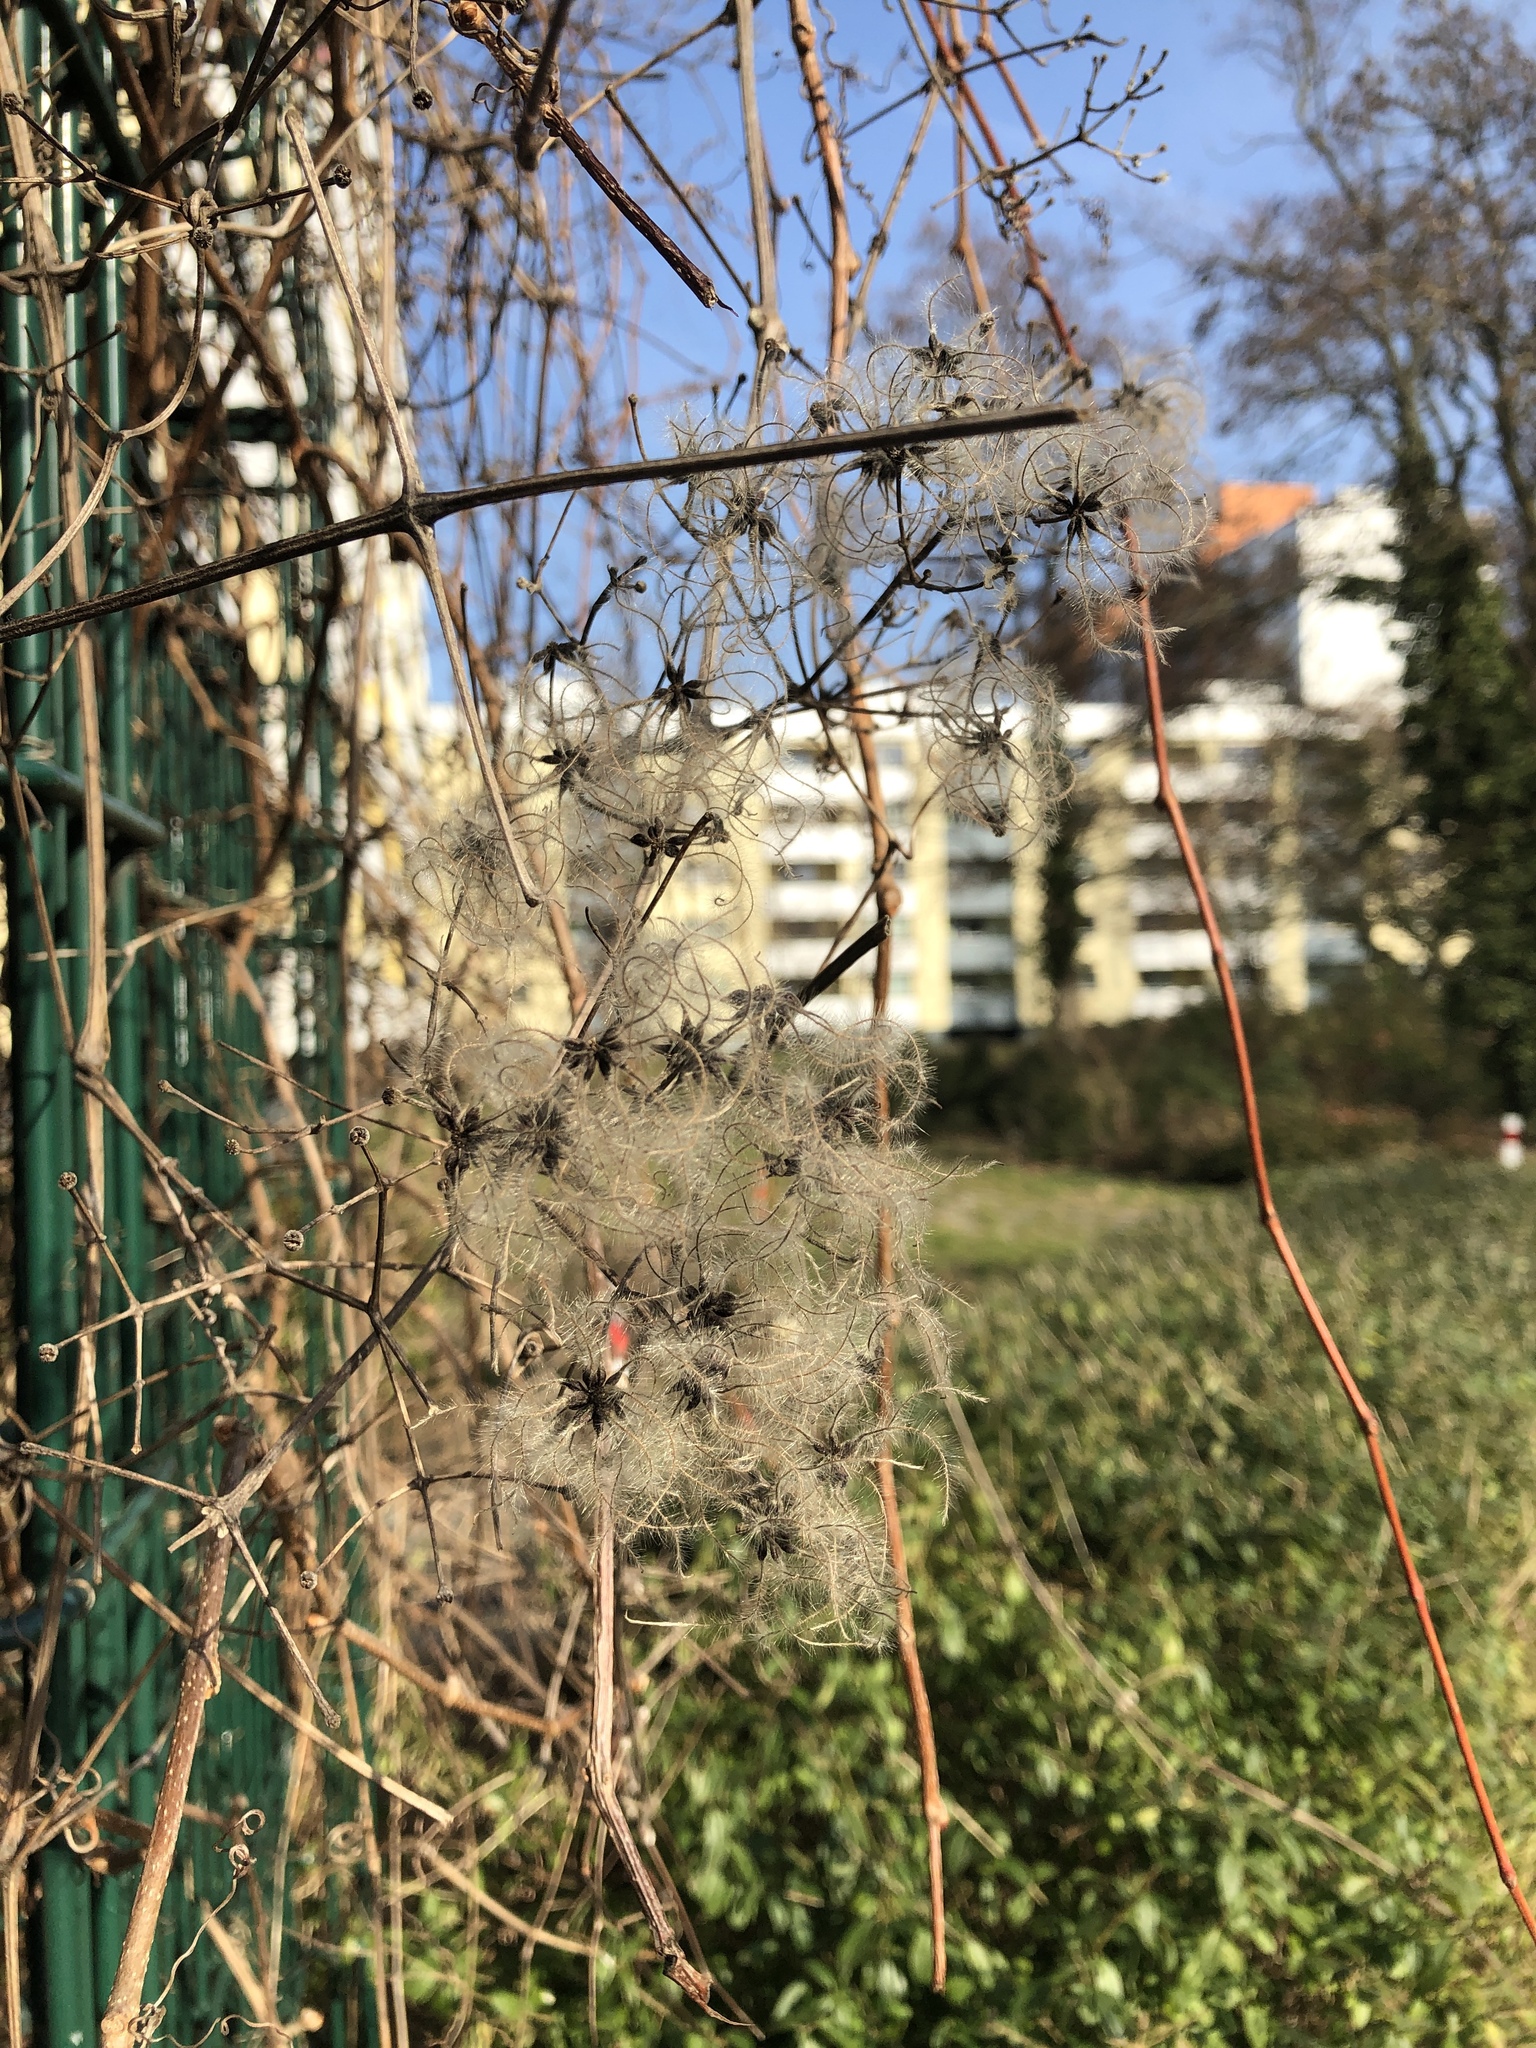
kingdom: Plantae
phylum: Tracheophyta
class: Magnoliopsida
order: Ranunculales
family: Ranunculaceae
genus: Clematis
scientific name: Clematis vitalba
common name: Evergreen clematis
